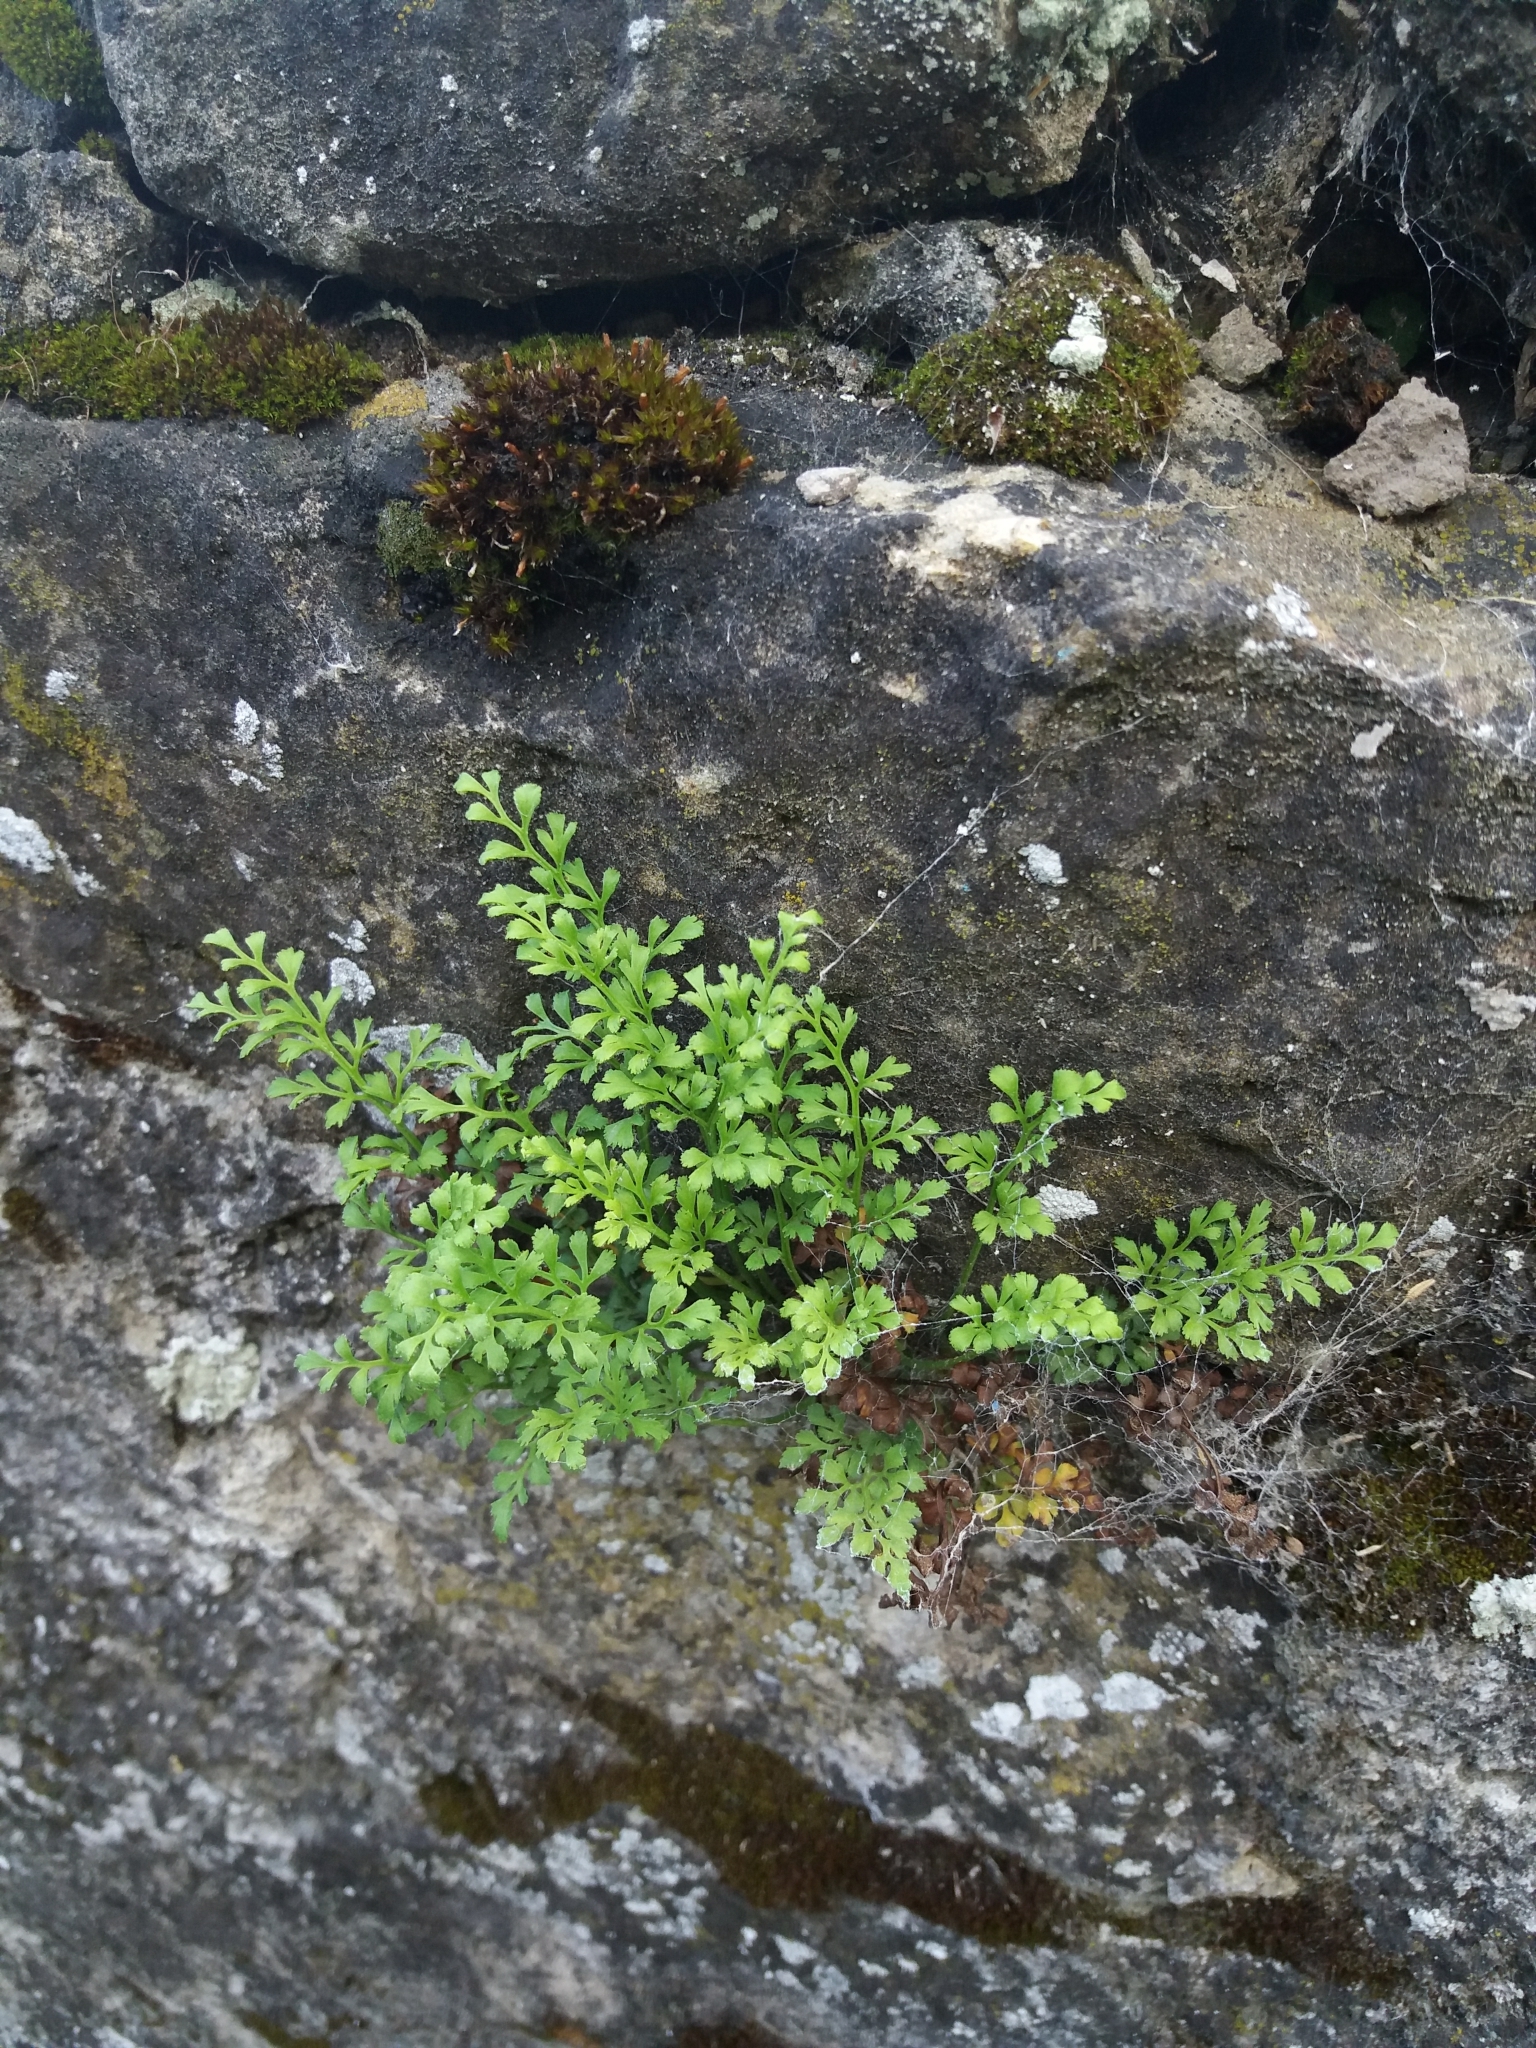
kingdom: Plantae
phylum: Tracheophyta
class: Polypodiopsida
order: Polypodiales
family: Aspleniaceae
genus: Asplenium
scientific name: Asplenium ruta-muraria
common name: Wall-rue
